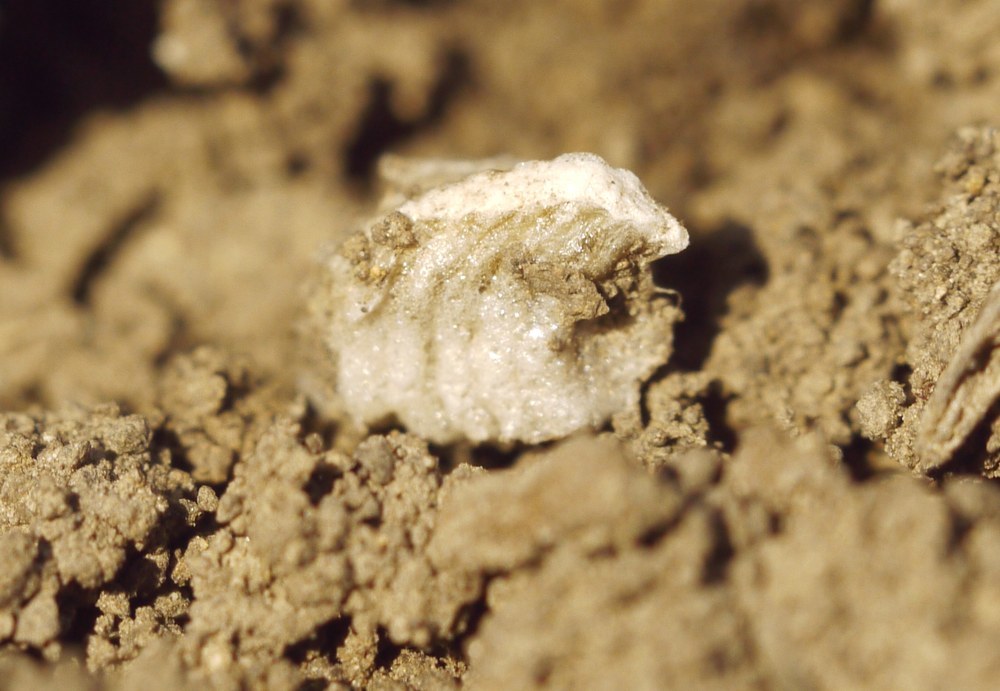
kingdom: Animalia
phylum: Arthropoda
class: Insecta
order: Mantodea
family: Amelidae
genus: Ameles
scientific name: Ameles heldreichi
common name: Heldreich's dwarf mantis
